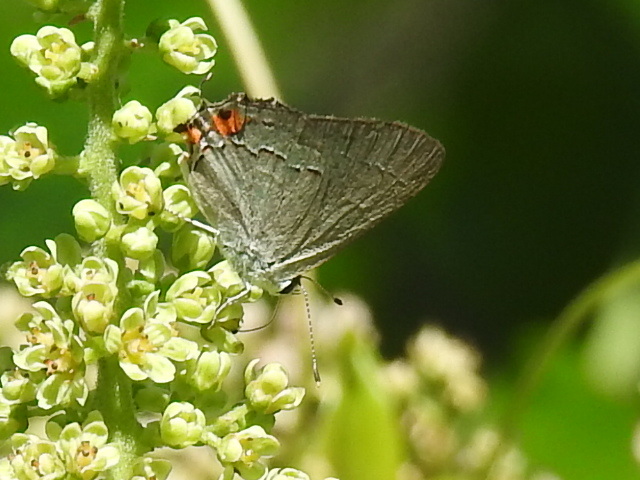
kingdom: Animalia
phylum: Arthropoda
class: Insecta
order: Lepidoptera
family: Lycaenidae
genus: Strymon
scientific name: Strymon melinus
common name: Gray hairstreak
